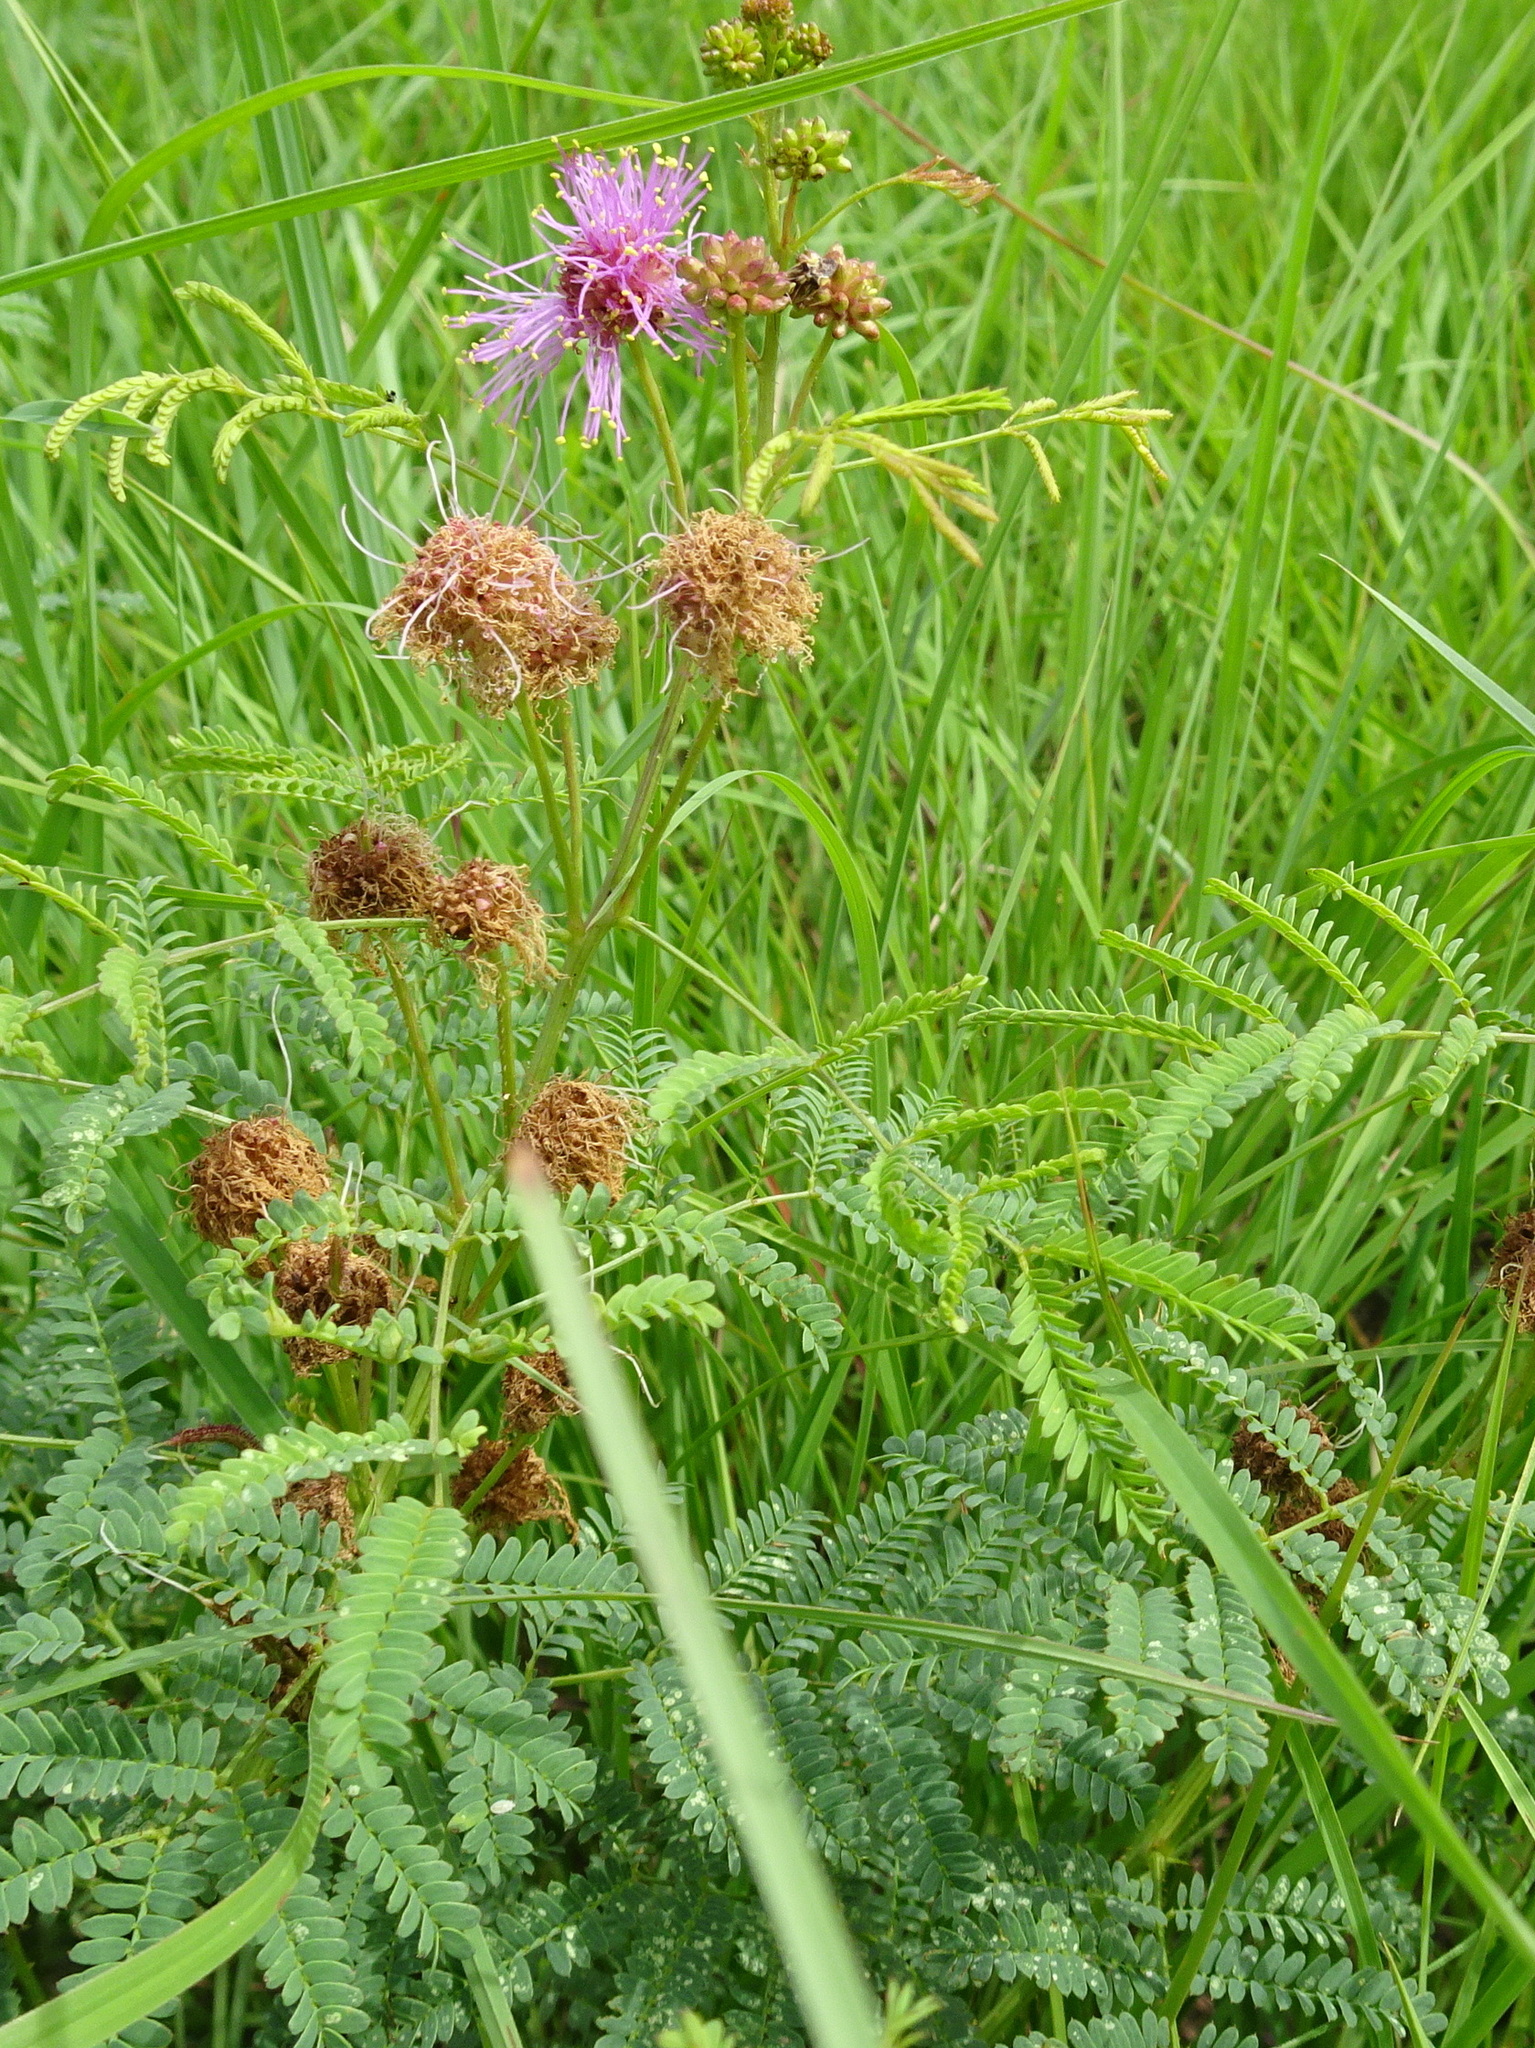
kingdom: Plantae
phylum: Tracheophyta
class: Magnoliopsida
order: Fabales
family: Fabaceae
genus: Mimosa
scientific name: Mimosa quadrivalvis
